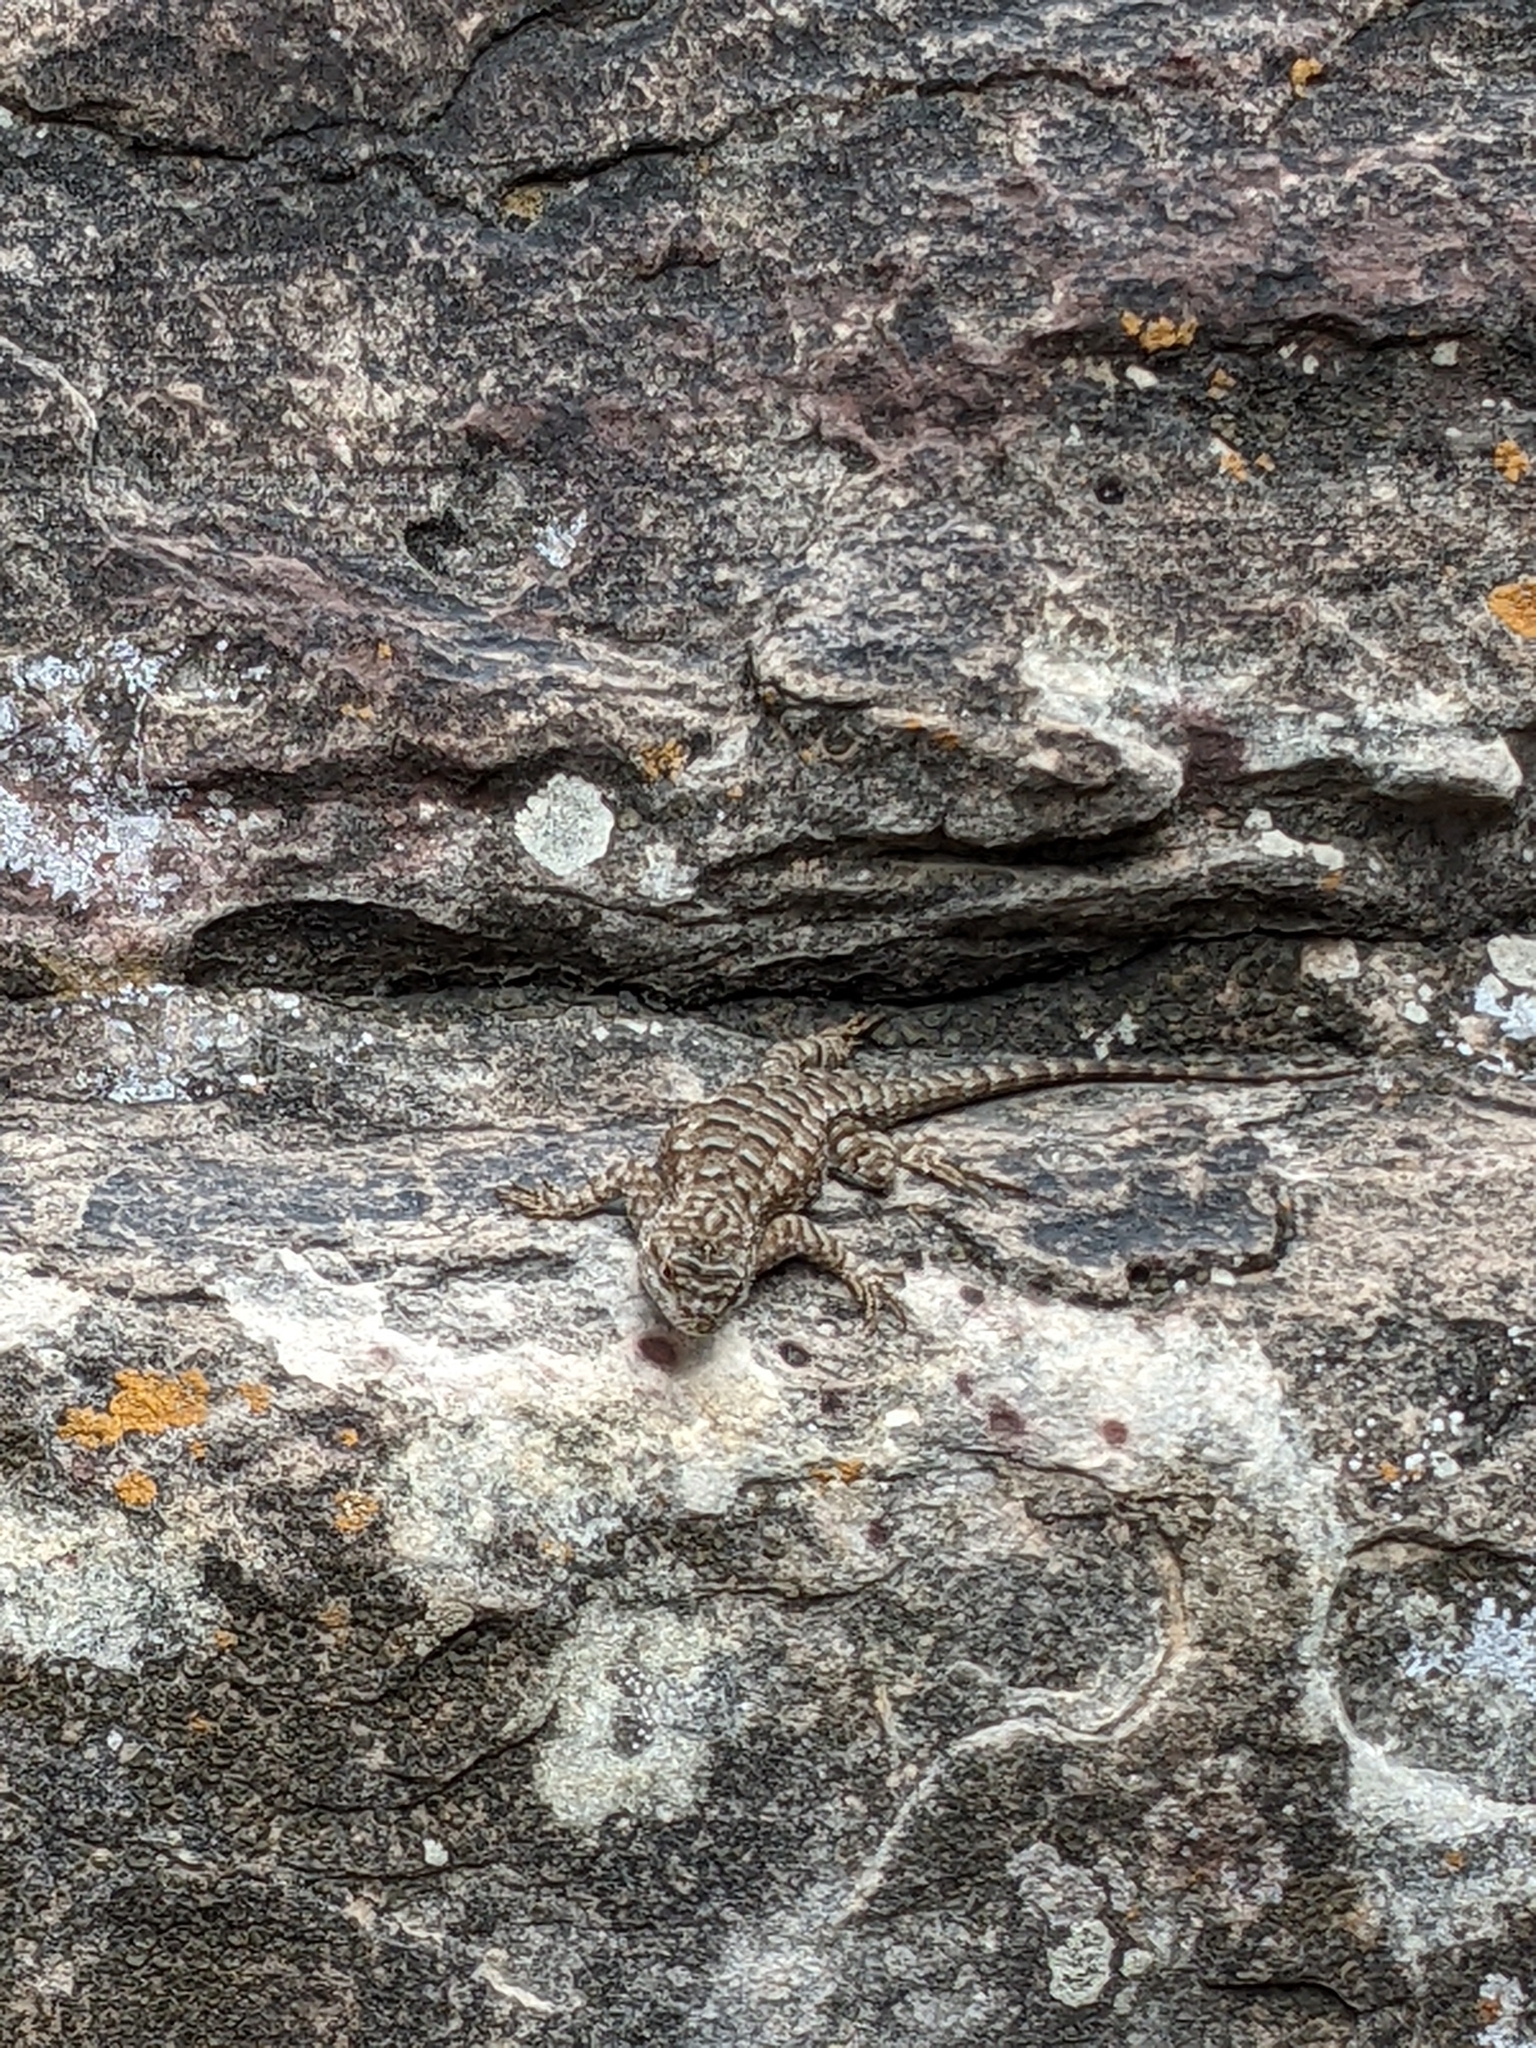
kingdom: Animalia
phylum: Chordata
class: Squamata
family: Phrynosomatidae
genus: Sceloporus
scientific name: Sceloporus occidentalis
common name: Western fence lizard
